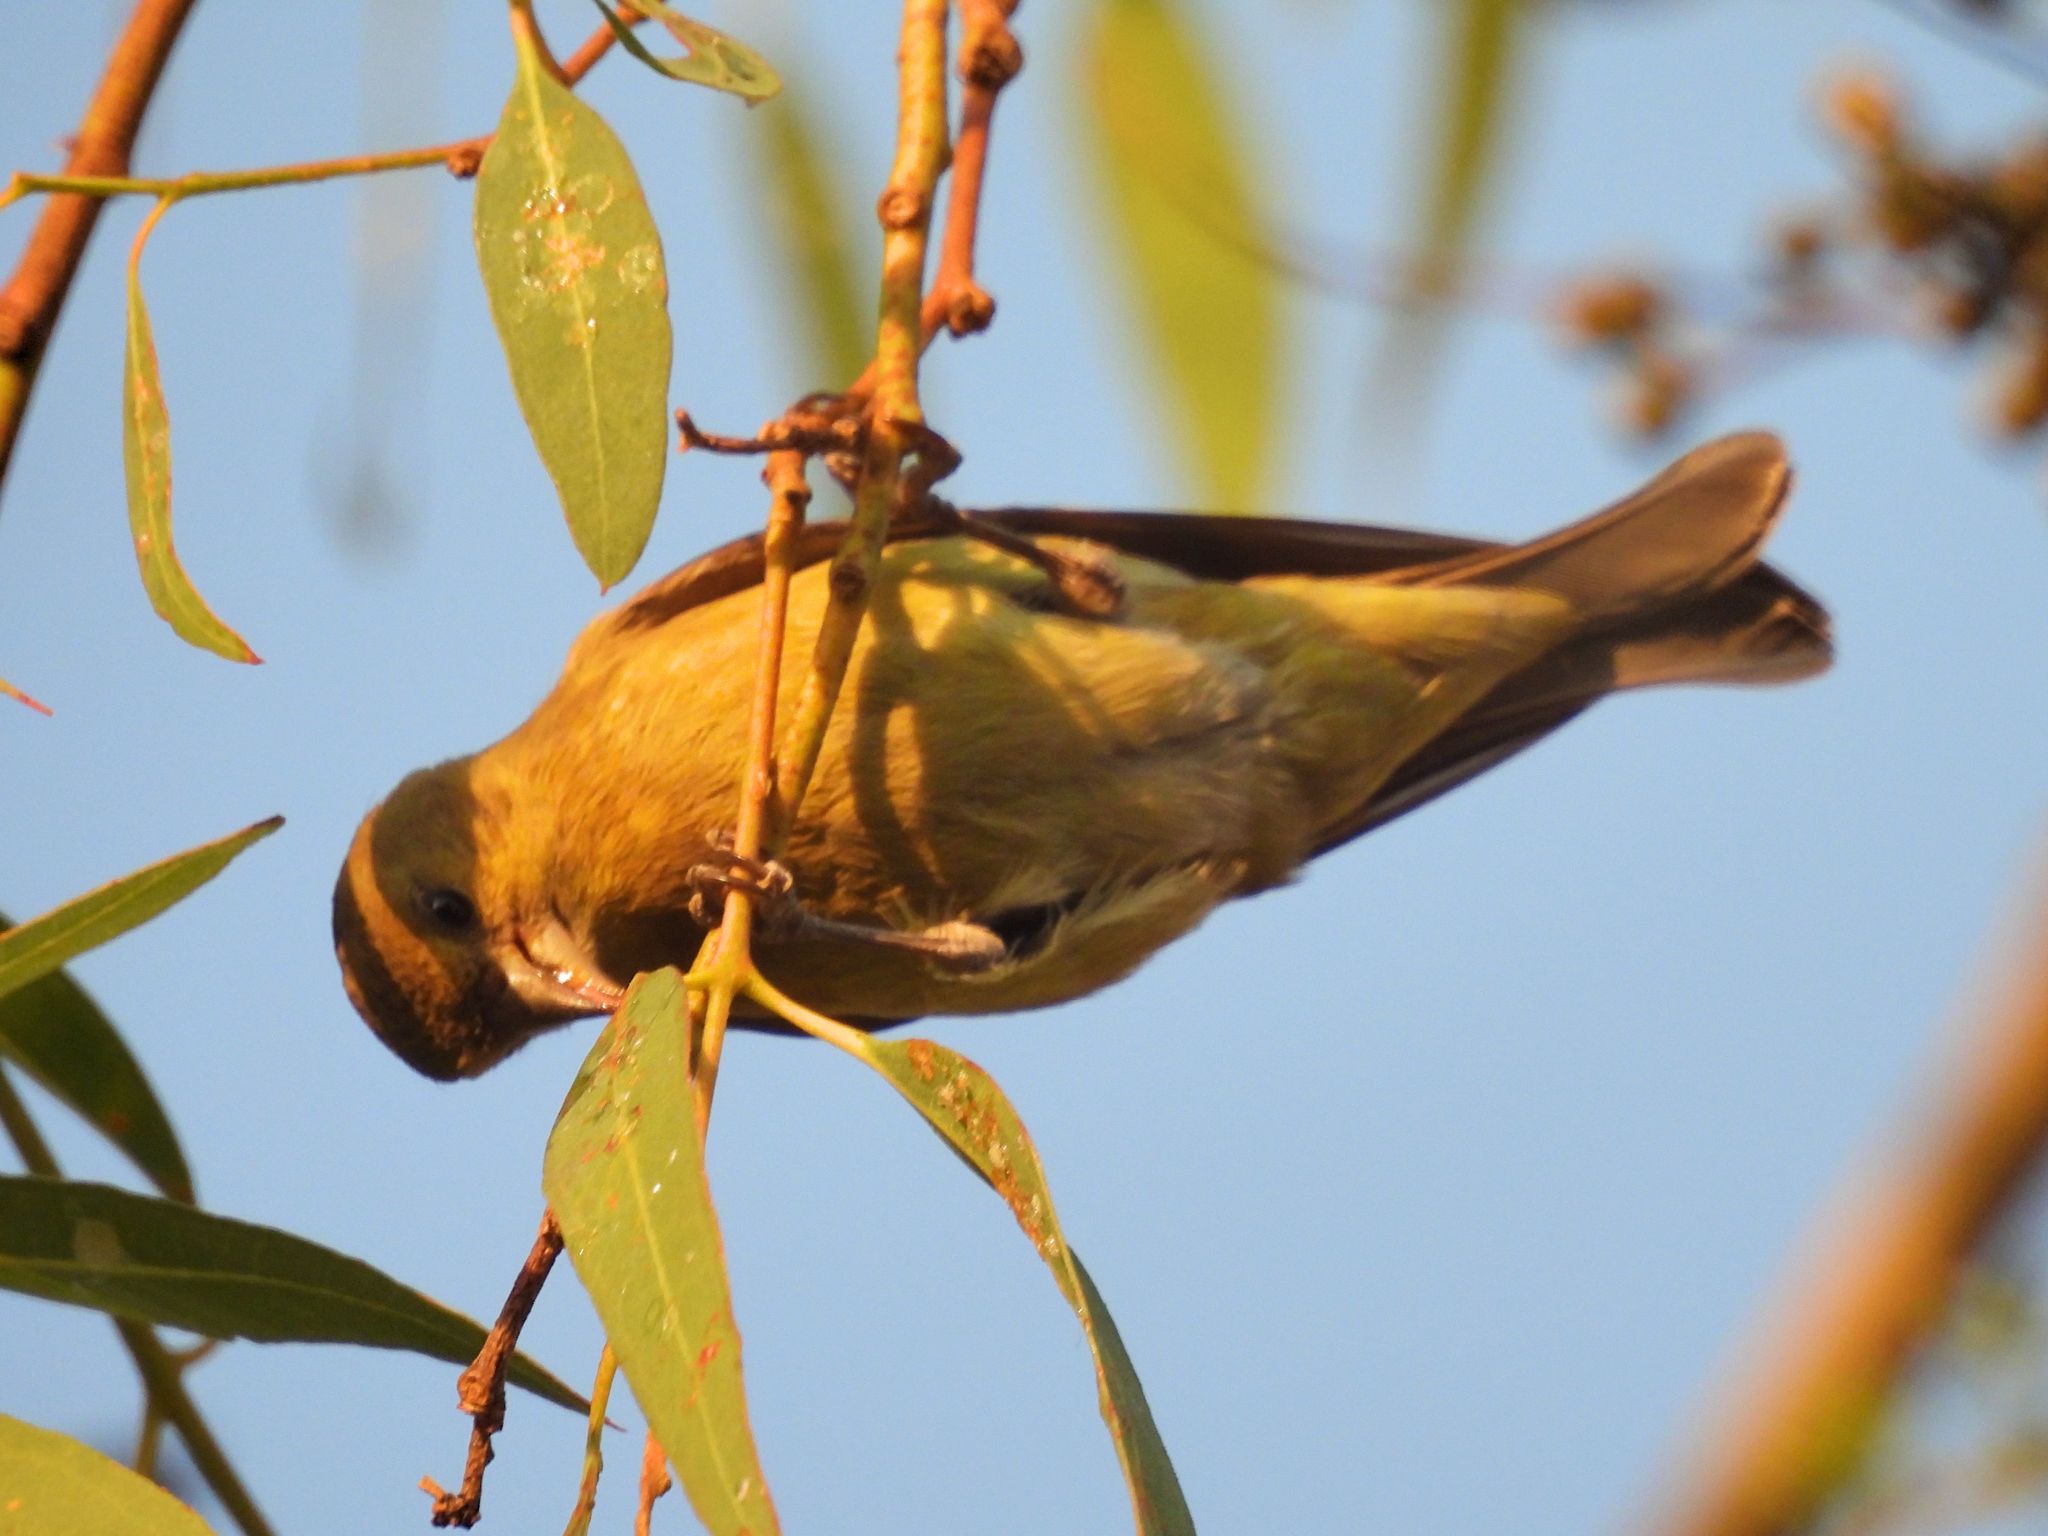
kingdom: Animalia
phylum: Chordata
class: Aves
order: Passeriformes
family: Fringillidae
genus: Spinus
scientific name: Spinus psaltria
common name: Lesser goldfinch
